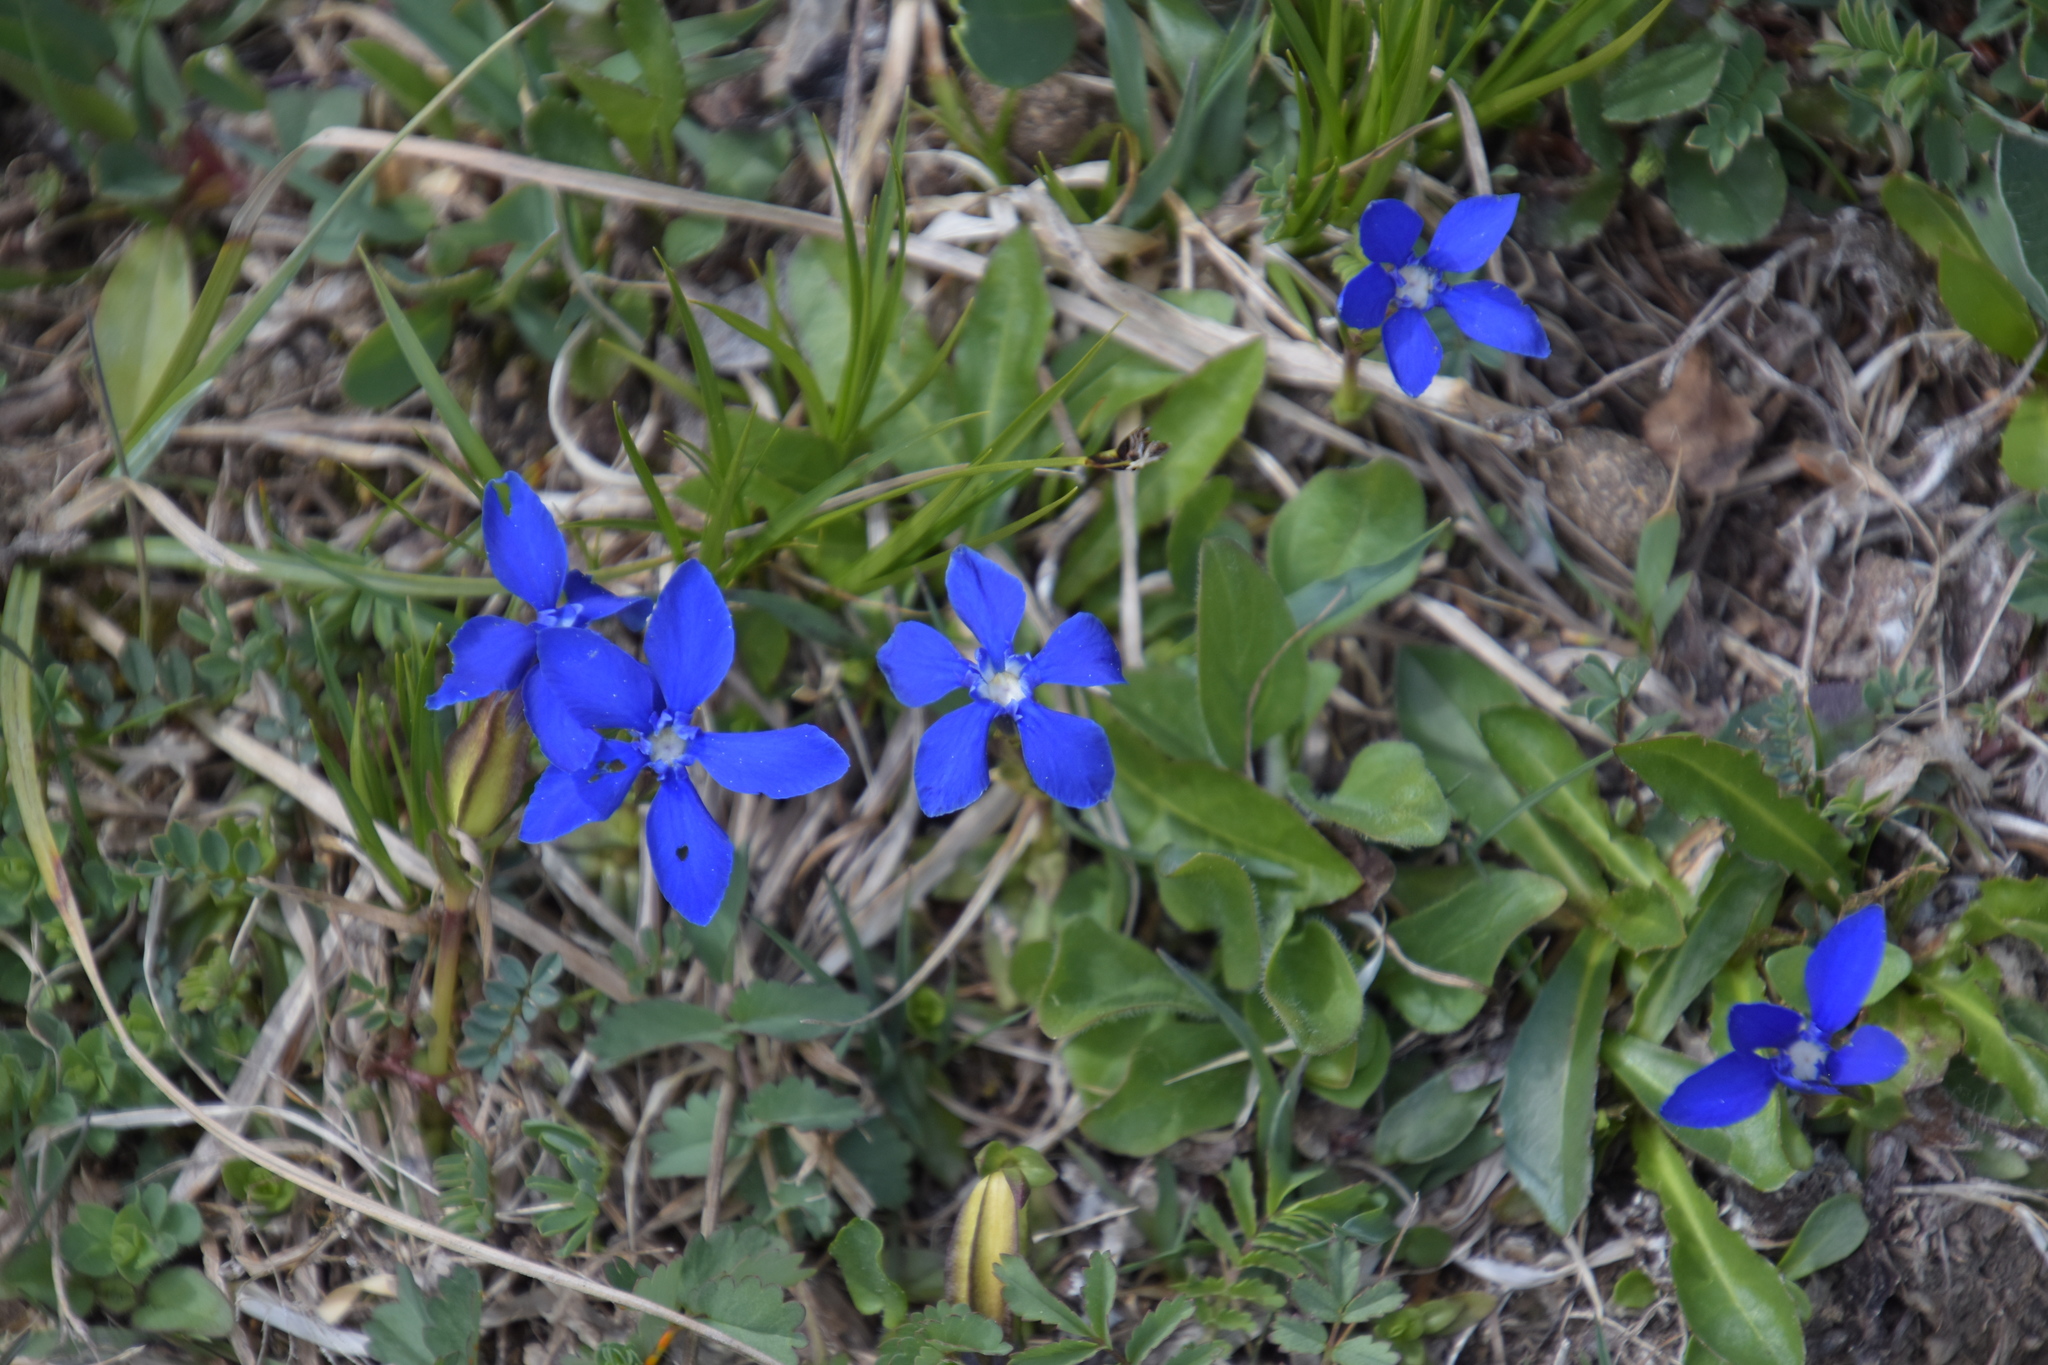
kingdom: Plantae
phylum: Tracheophyta
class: Magnoliopsida
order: Gentianales
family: Gentianaceae
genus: Gentiana
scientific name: Gentiana verna
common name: Spring gentian
